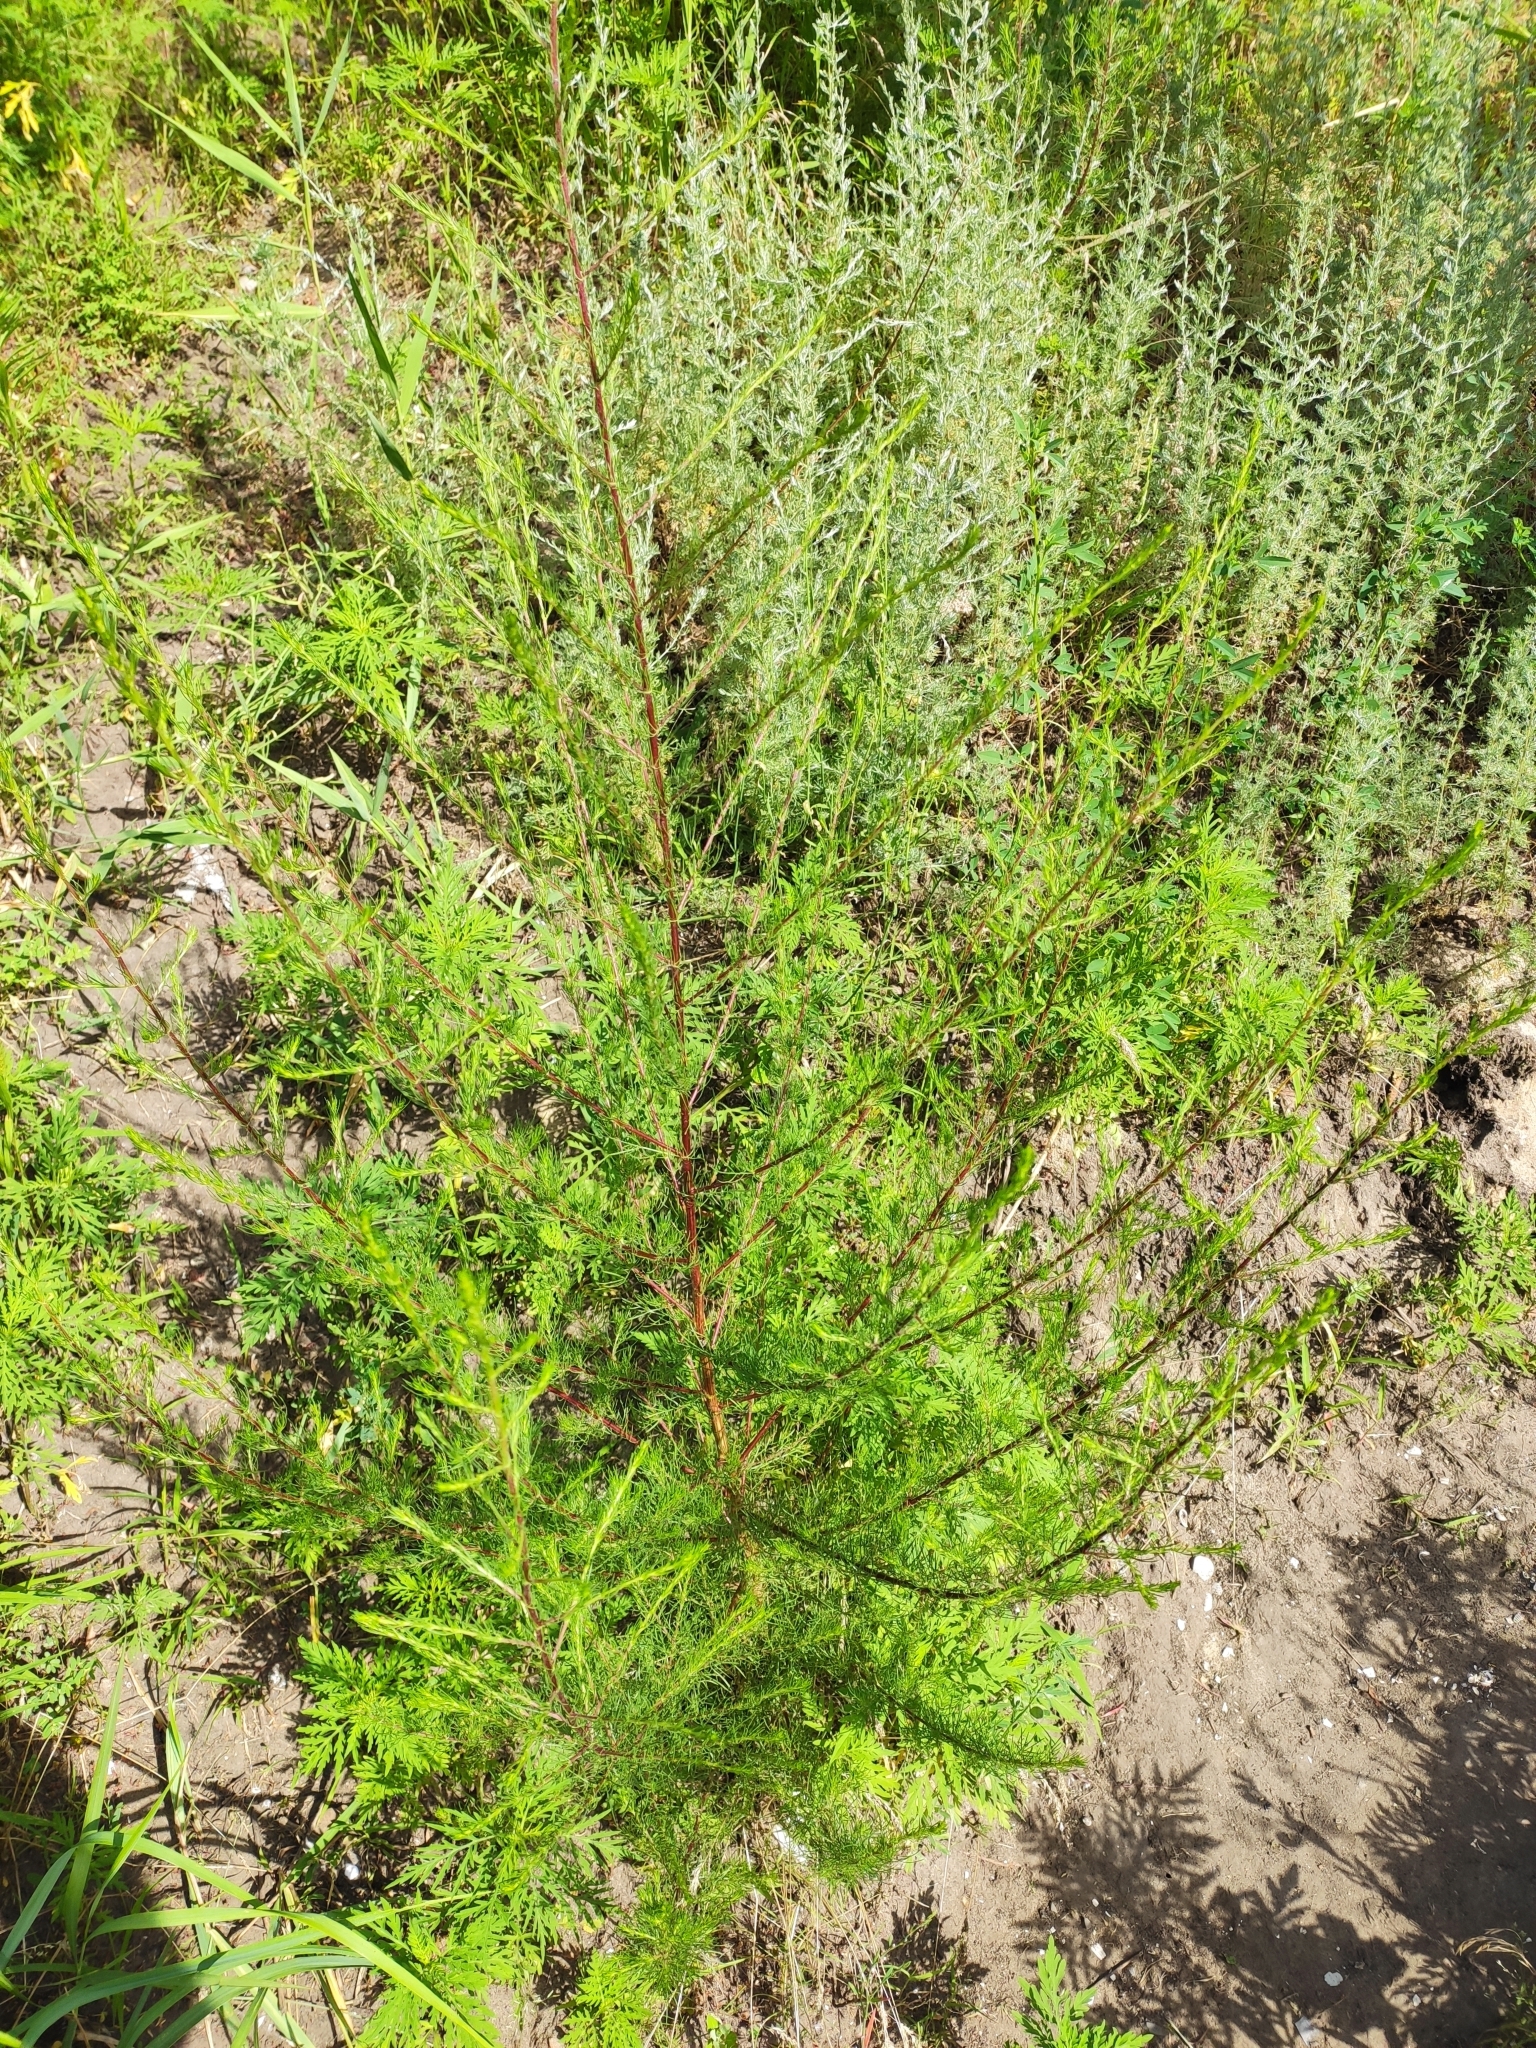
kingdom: Plantae
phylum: Tracheophyta
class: Magnoliopsida
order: Asterales
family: Asteraceae
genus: Artemisia
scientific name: Artemisia scoparia
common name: Redstem wormwood
